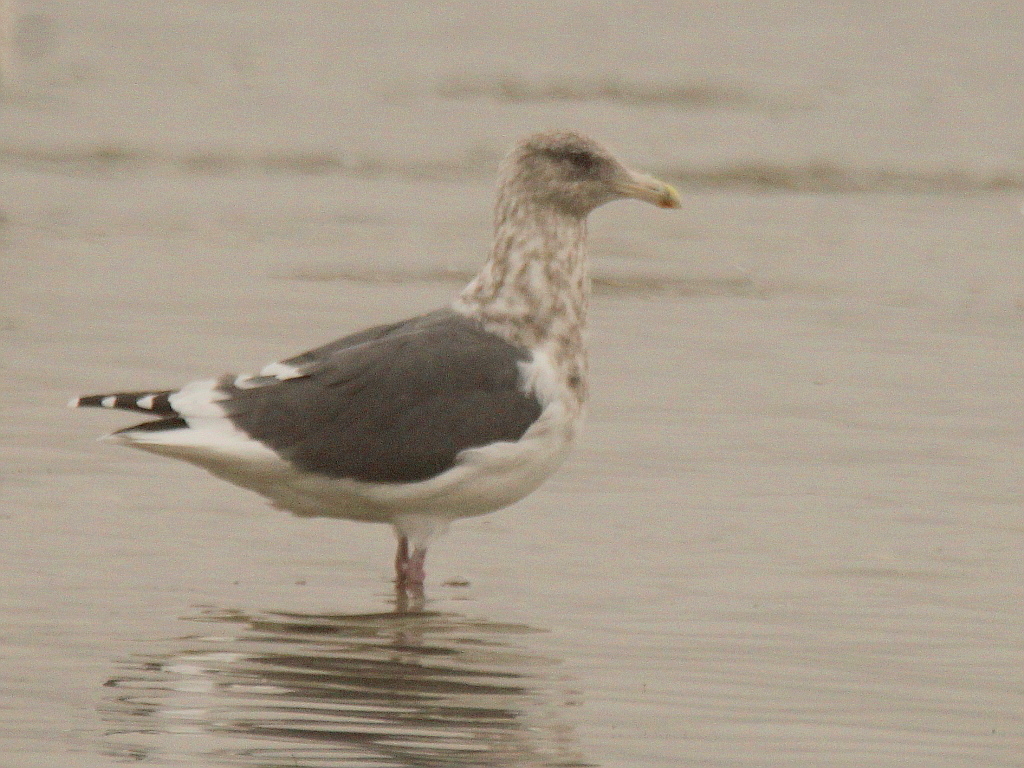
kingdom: Animalia
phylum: Chordata
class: Aves
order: Charadriiformes
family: Laridae
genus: Larus
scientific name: Larus schistisagus
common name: Slaty-backed gull
